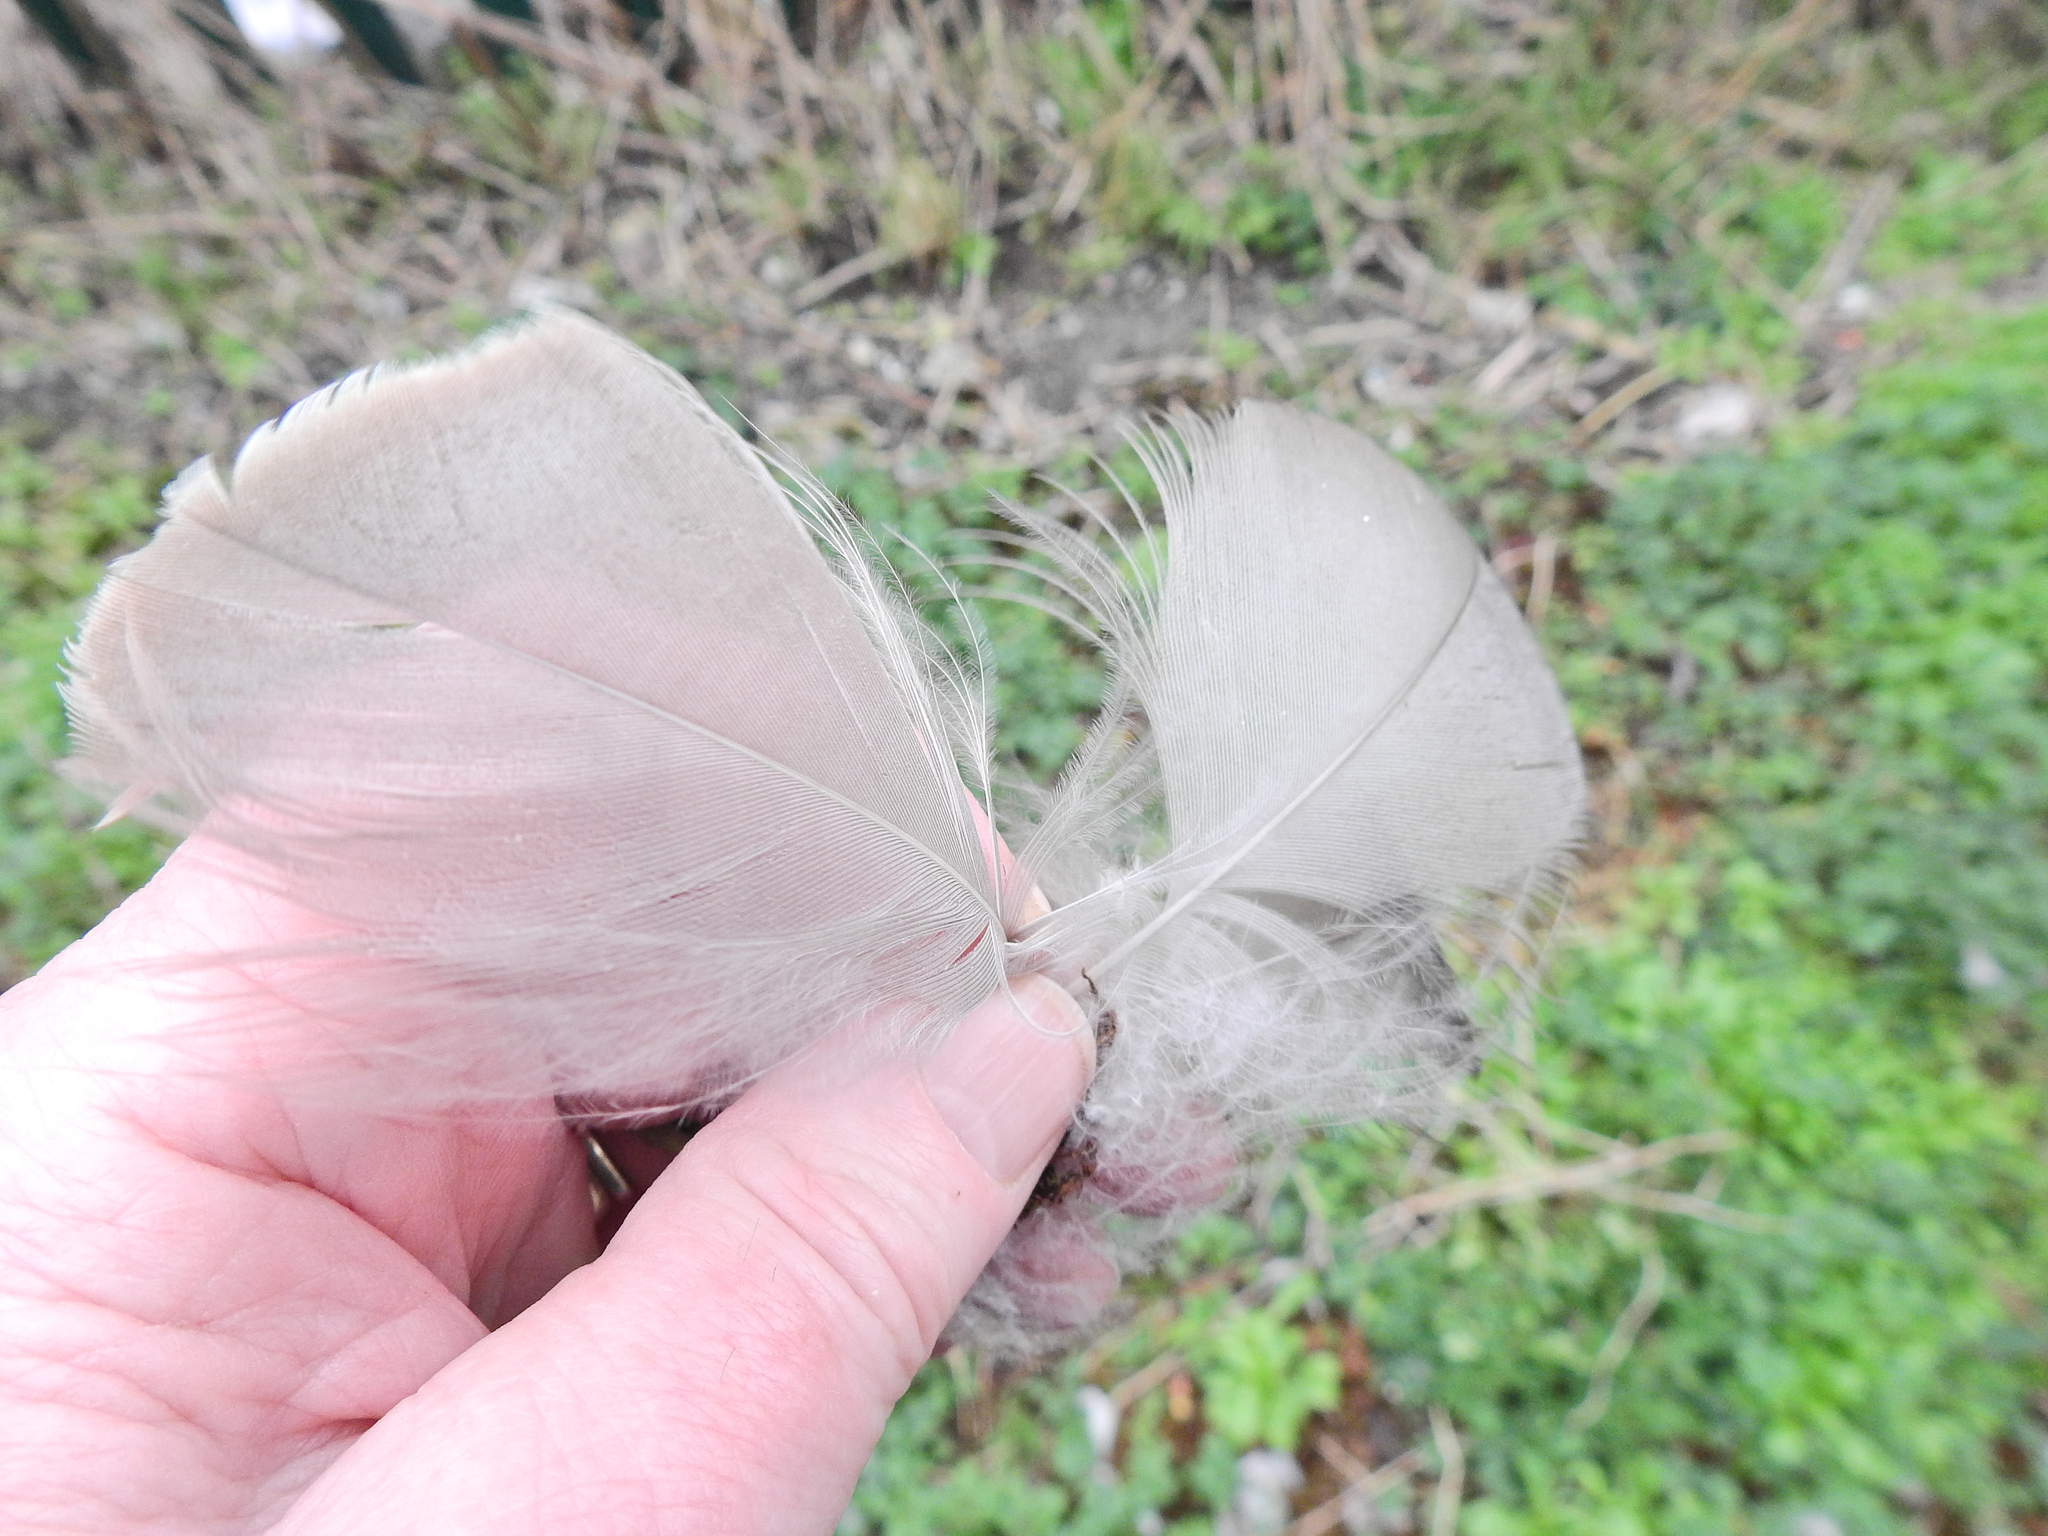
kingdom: Animalia
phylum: Chordata
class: Aves
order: Anseriformes
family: Anatidae
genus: Branta
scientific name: Branta canadensis
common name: Canada goose
